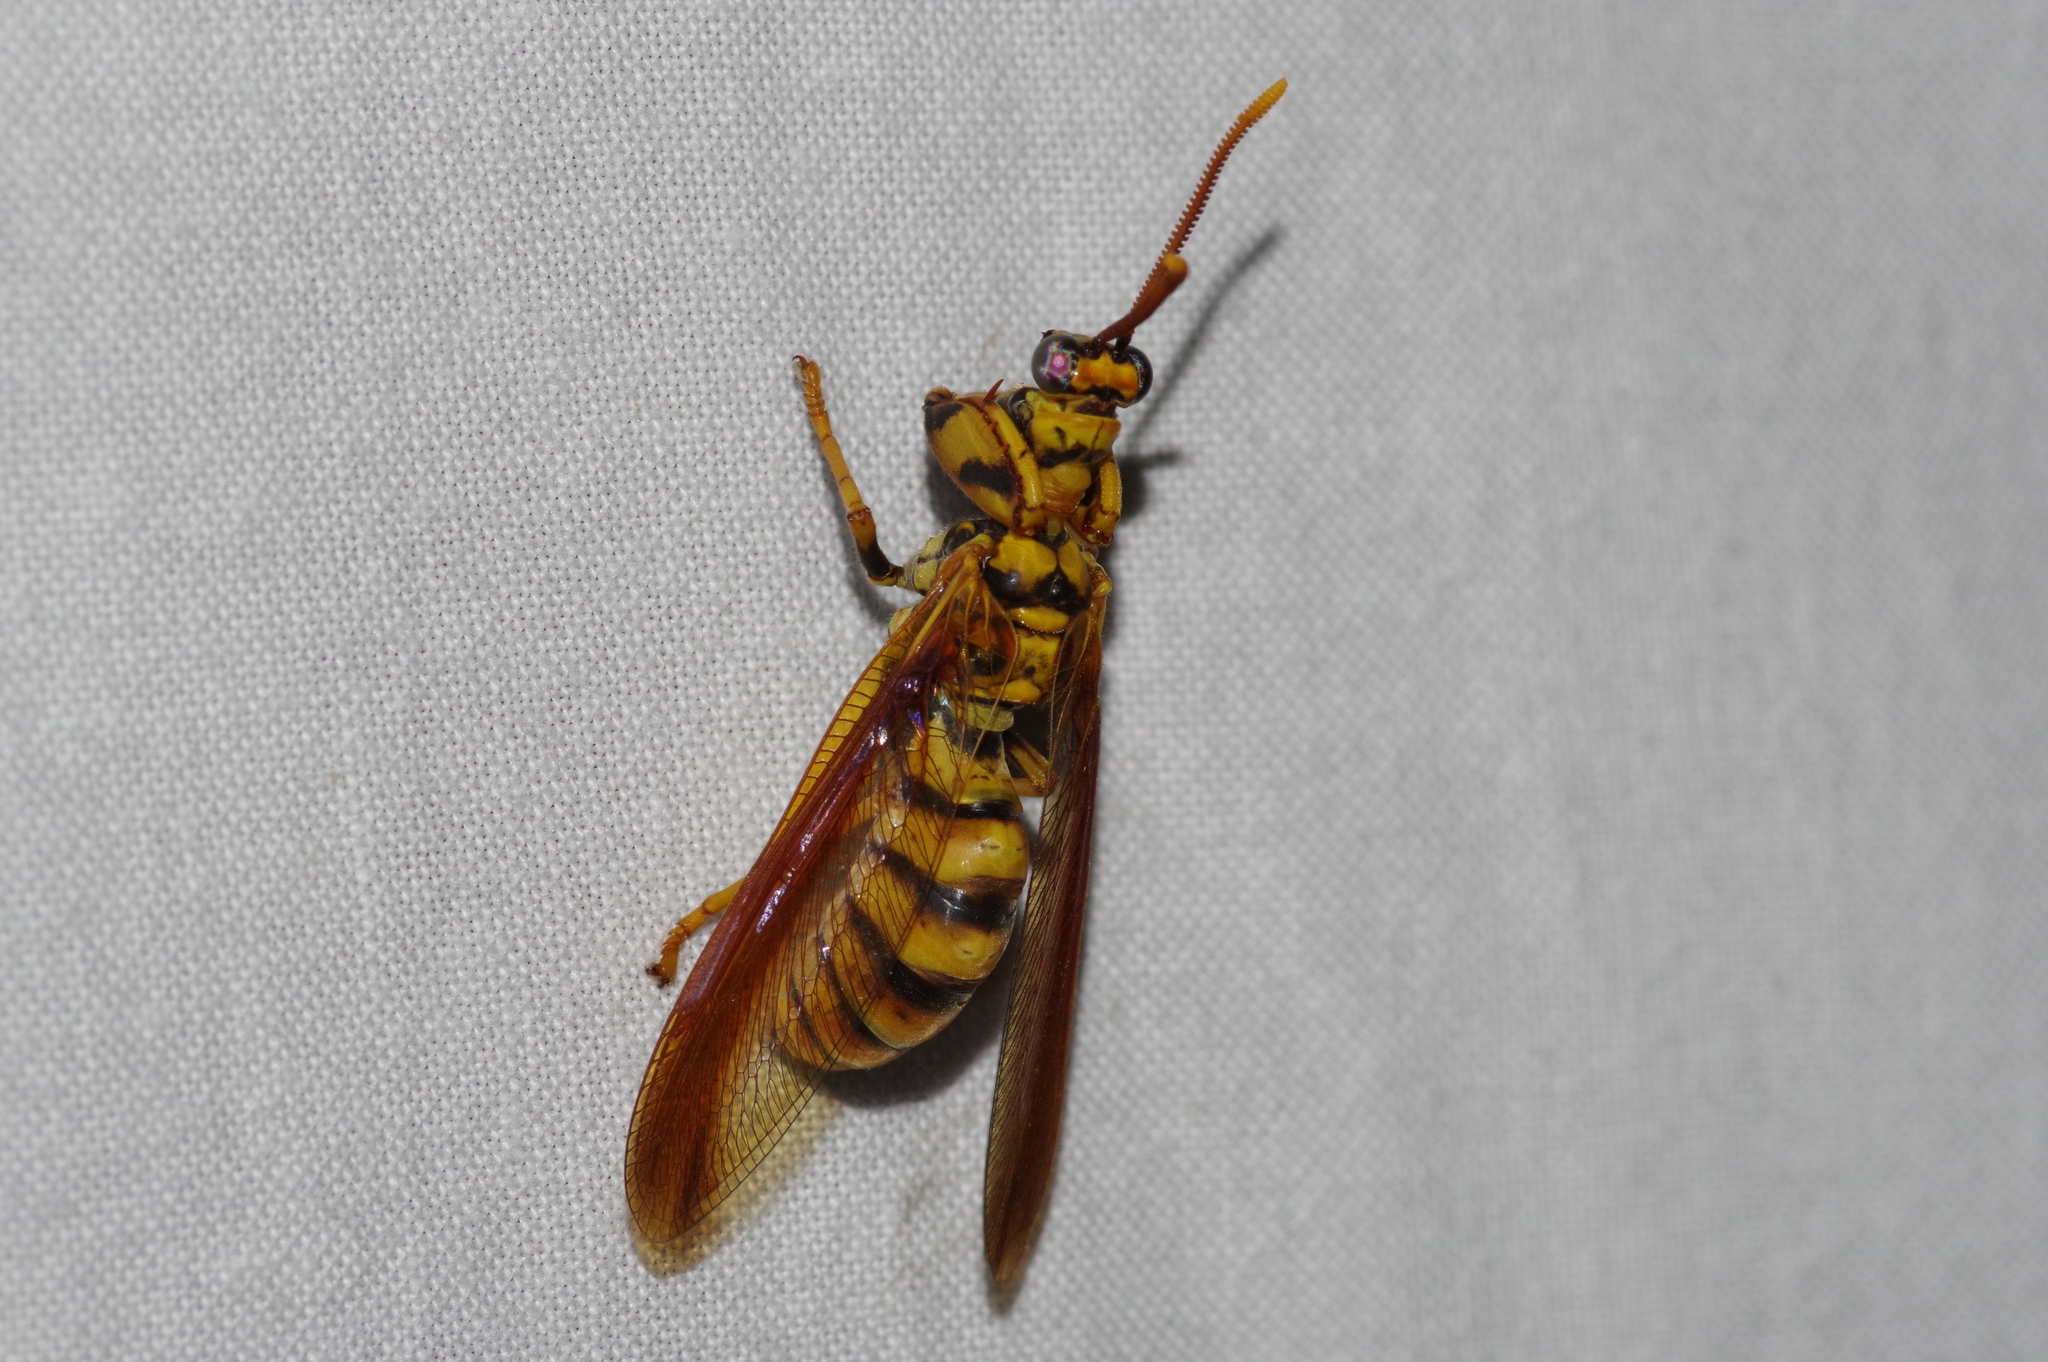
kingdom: Animalia
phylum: Arthropoda
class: Insecta
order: Neuroptera
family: Mantispidae
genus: Euclimacia
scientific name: Euclimacia badia
